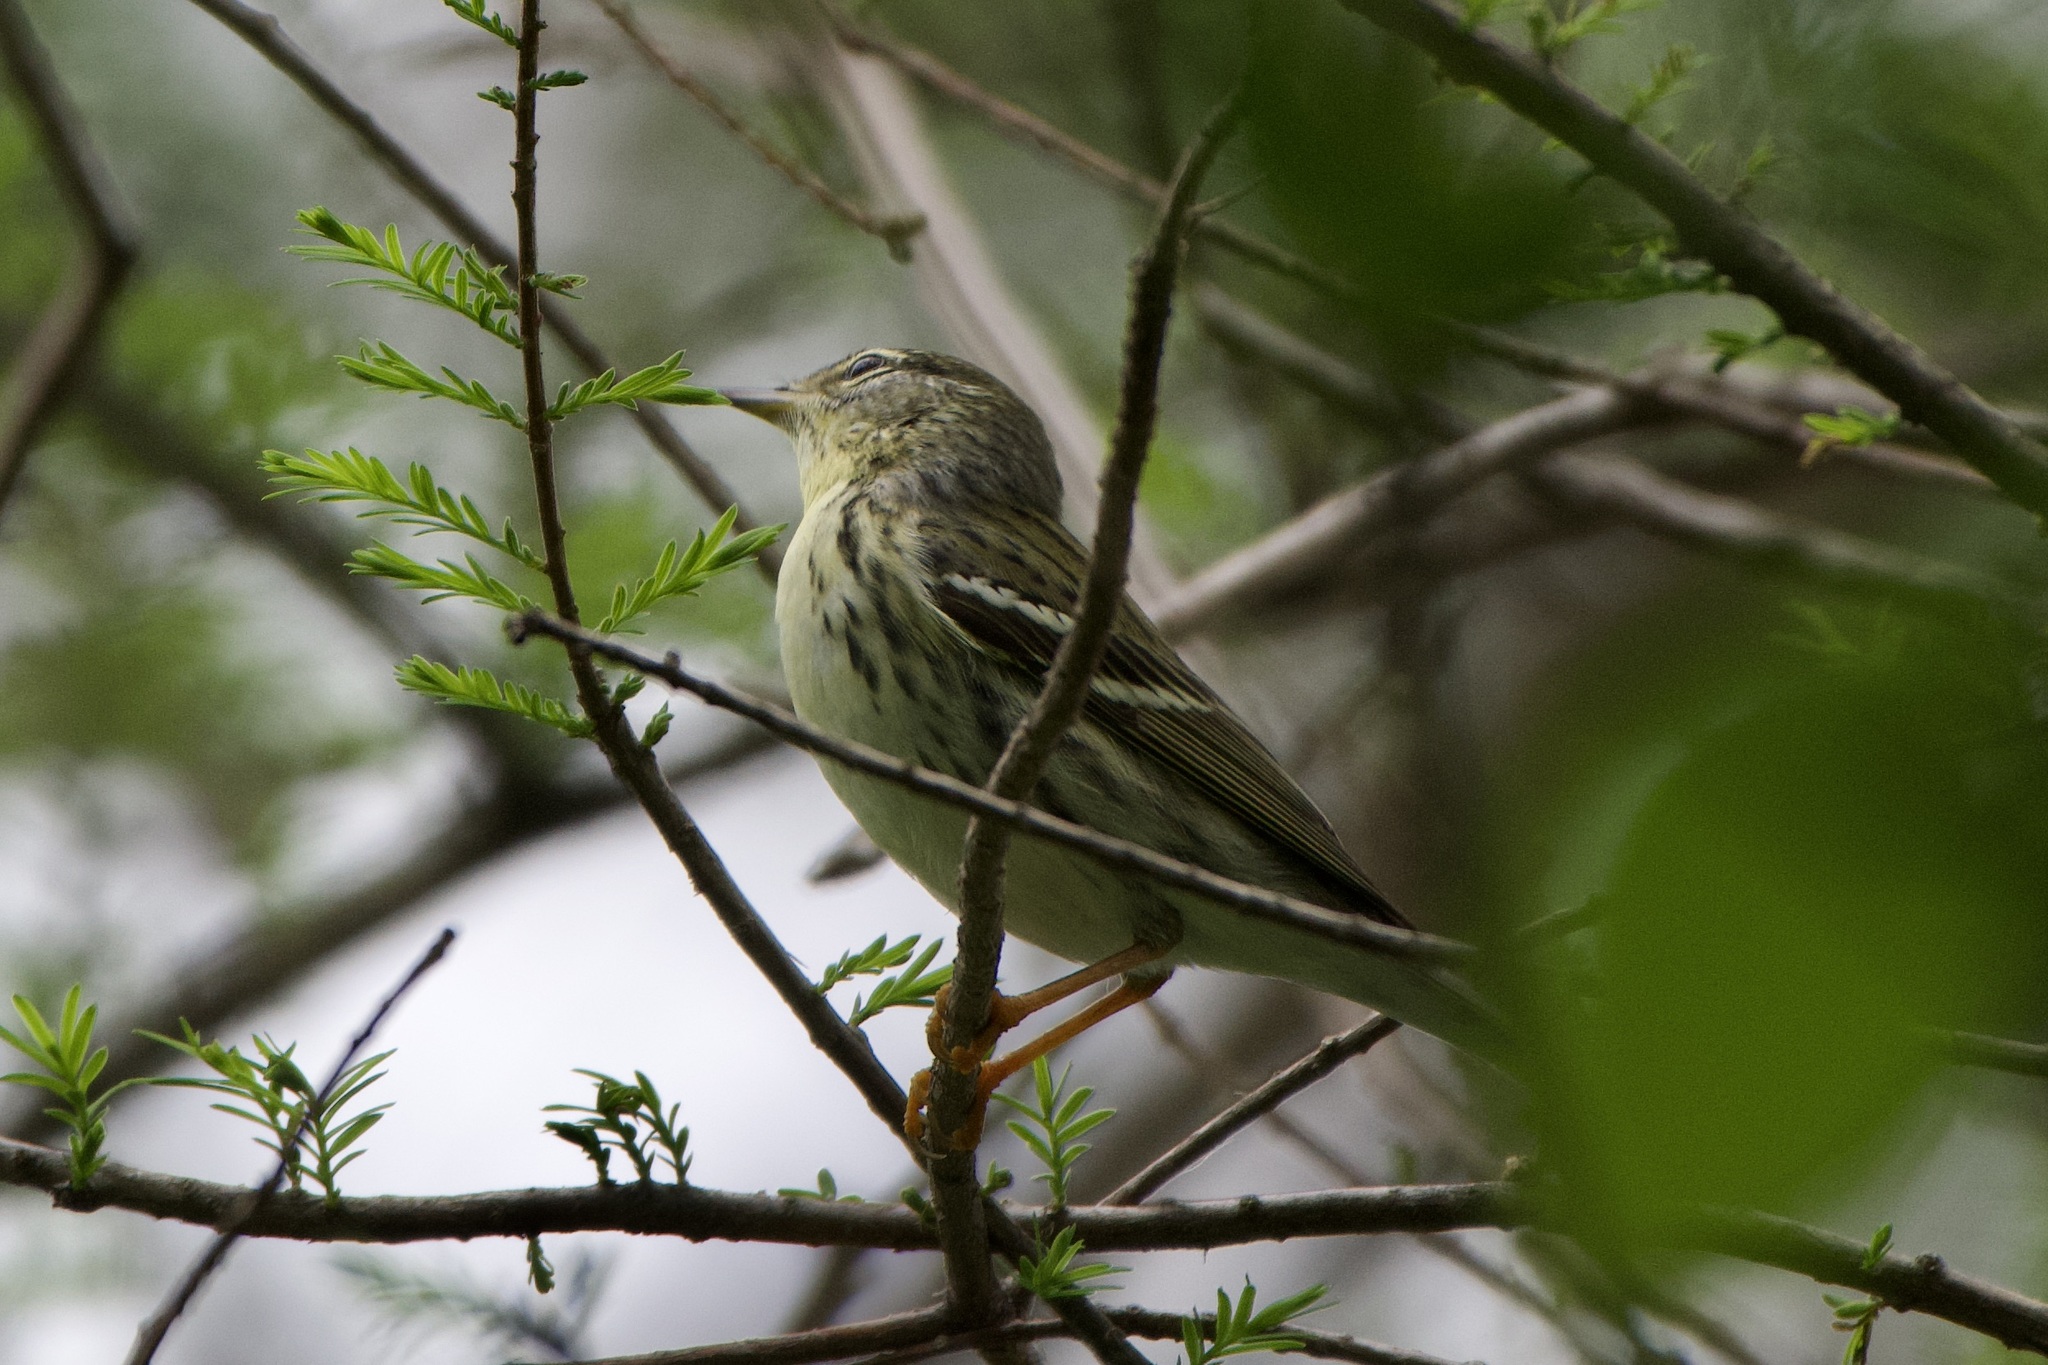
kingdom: Animalia
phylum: Chordata
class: Aves
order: Passeriformes
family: Parulidae
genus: Setophaga
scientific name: Setophaga striata
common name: Blackpoll warbler
